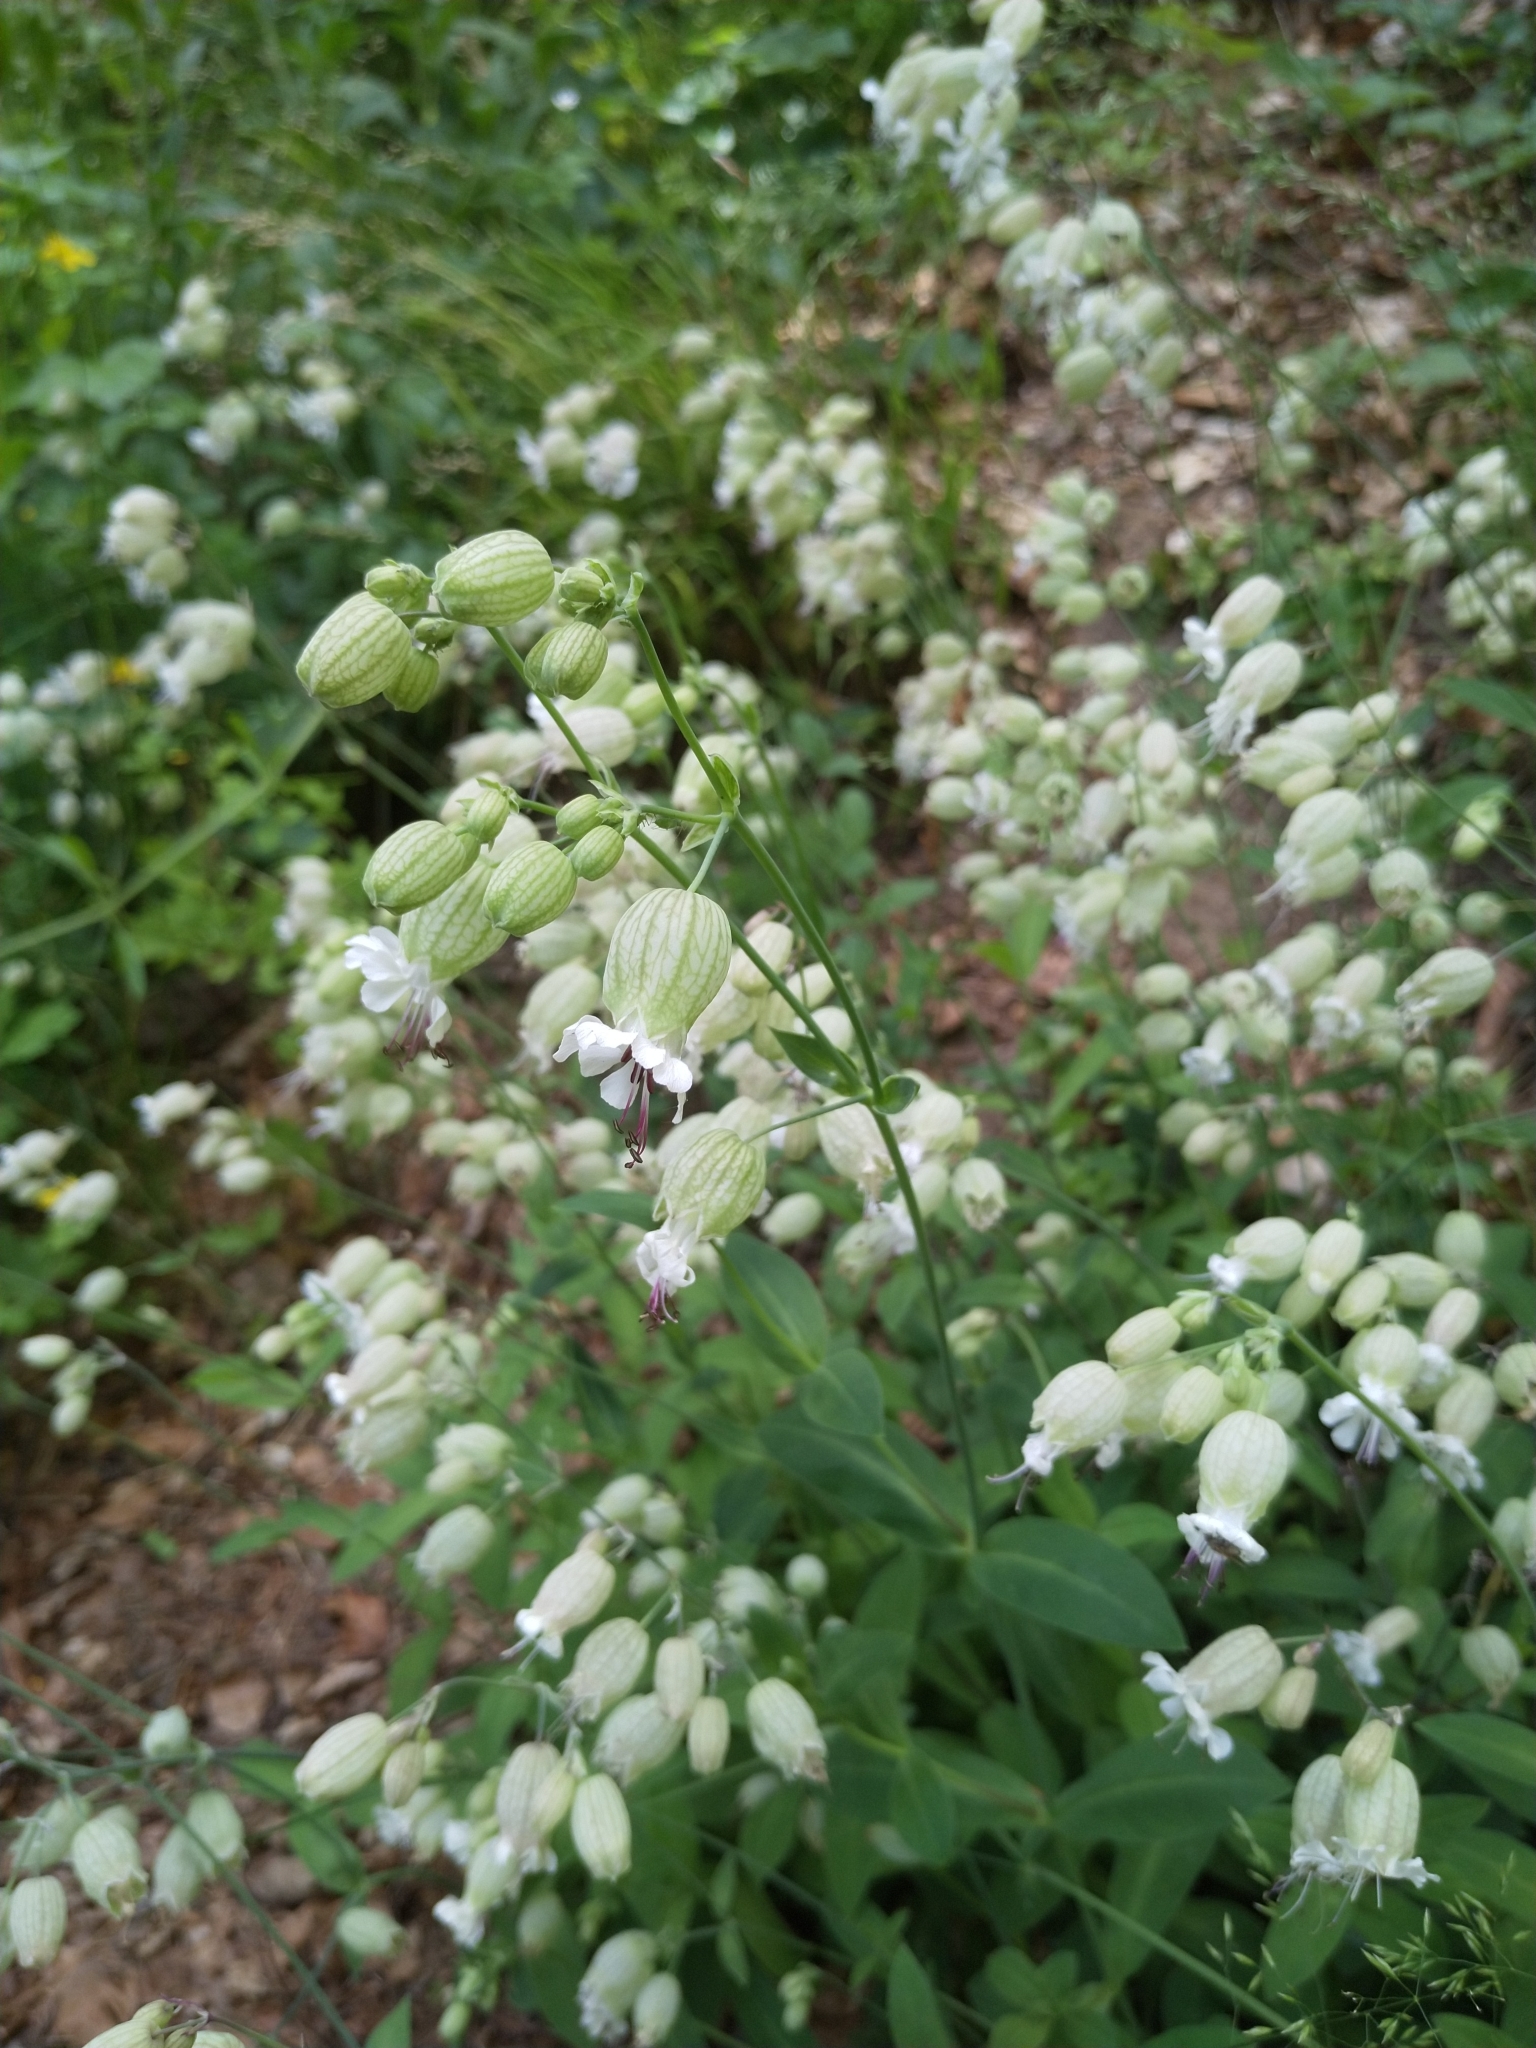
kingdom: Plantae
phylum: Tracheophyta
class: Magnoliopsida
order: Caryophyllales
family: Caryophyllaceae
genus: Silene
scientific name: Silene vulgaris
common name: Bladder campion
